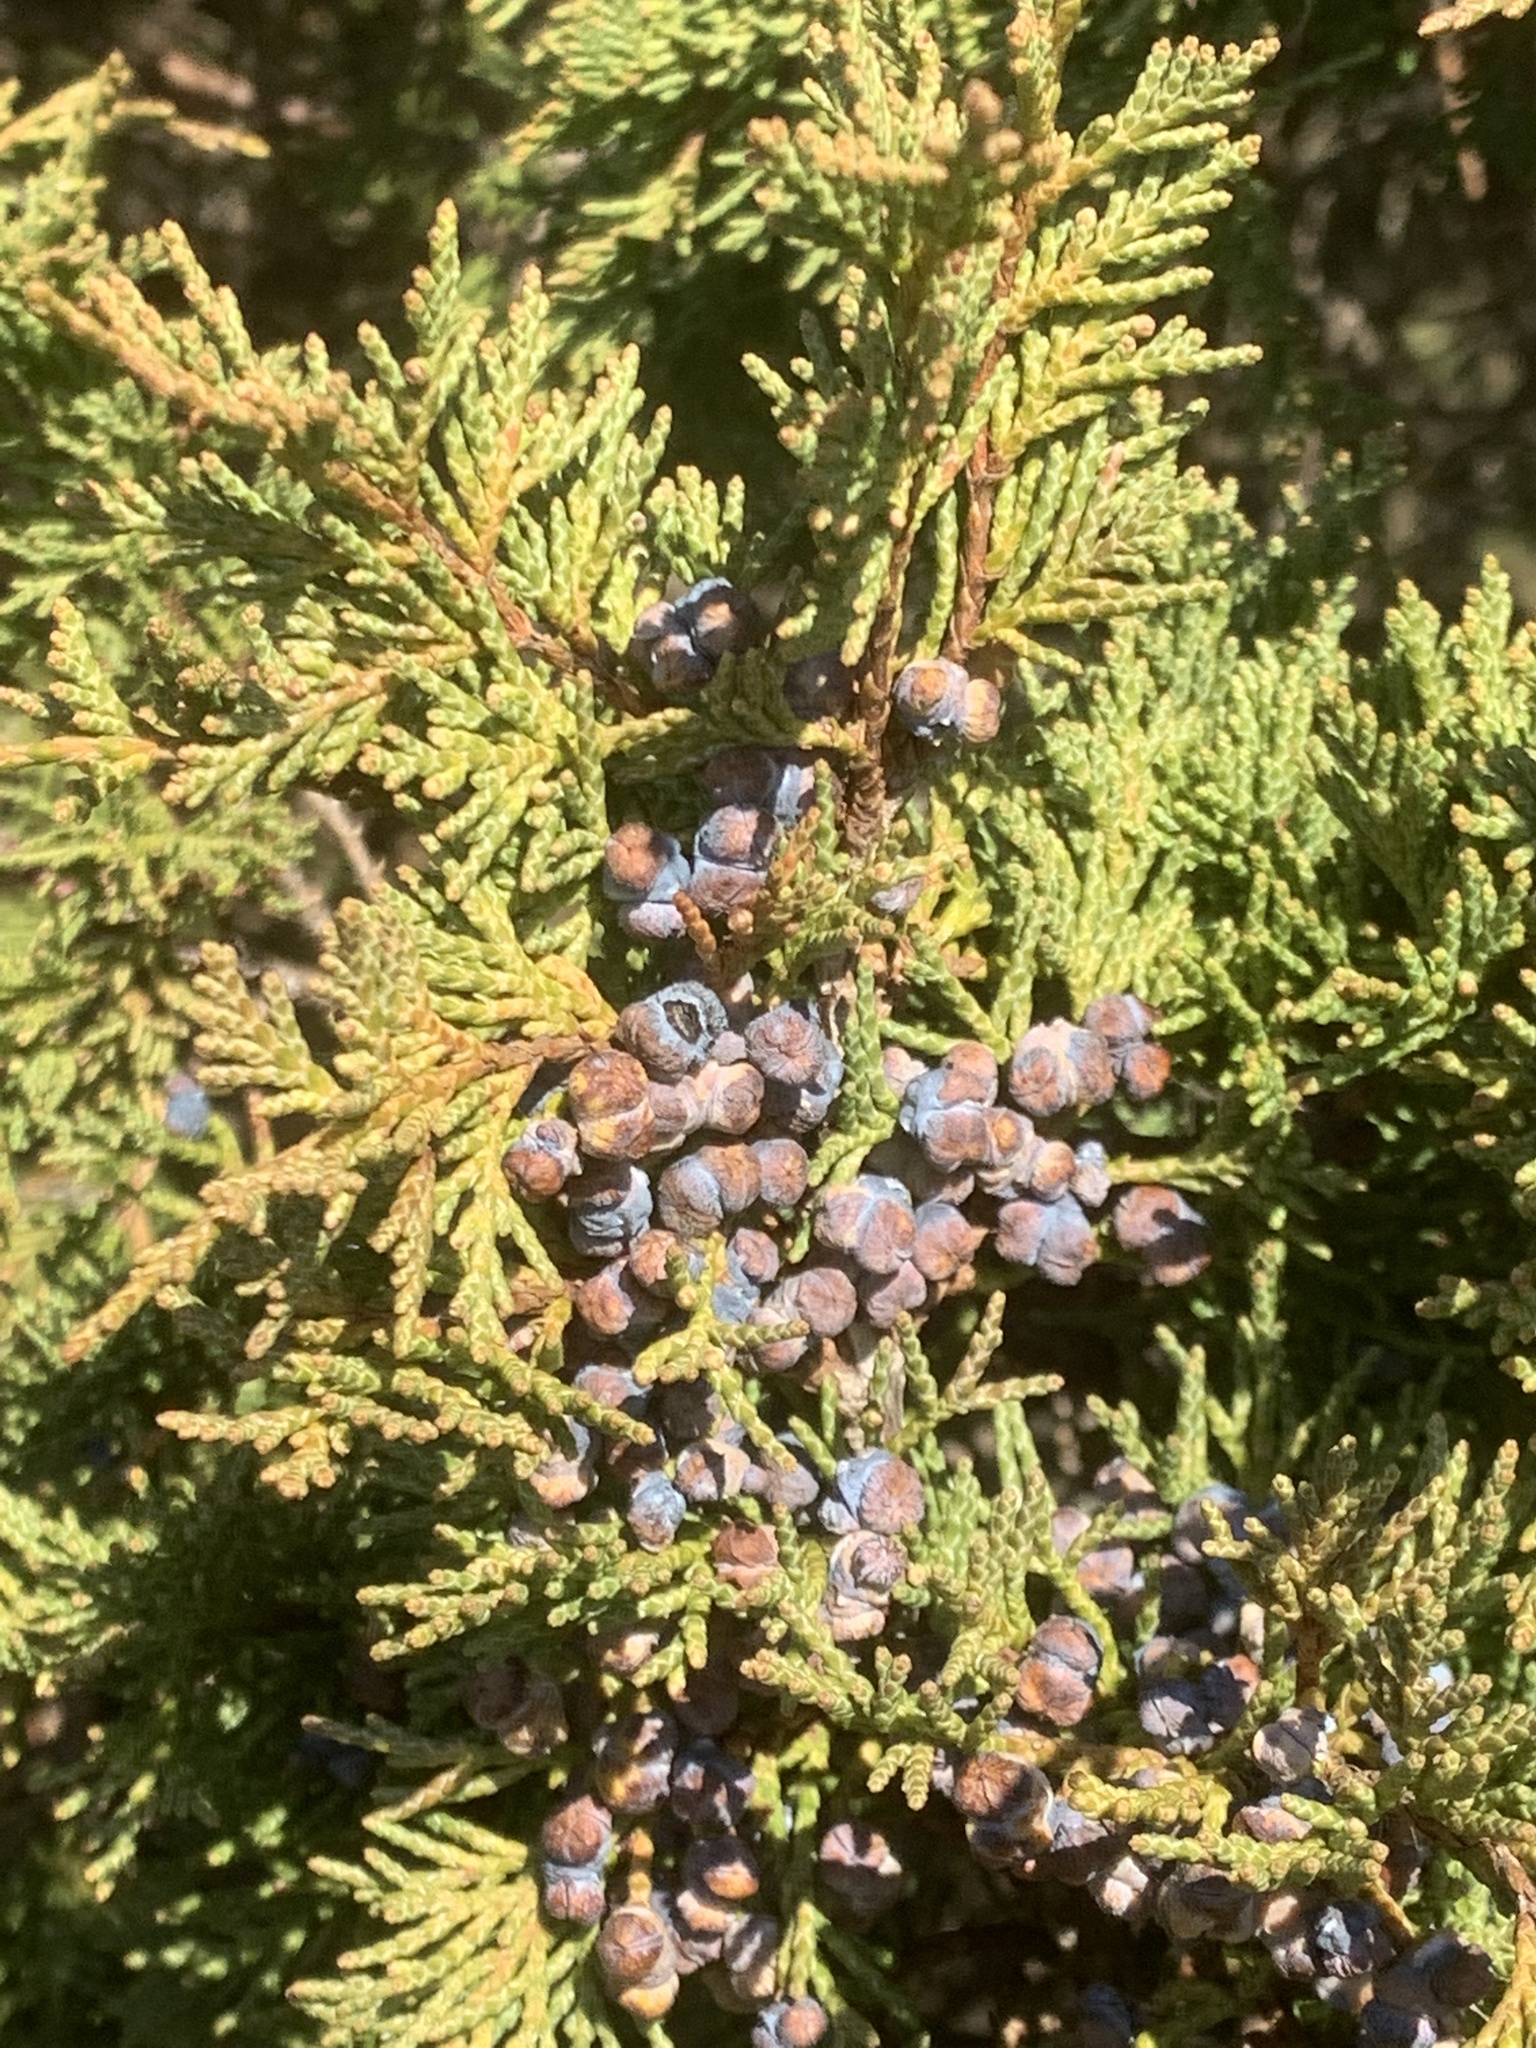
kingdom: Plantae
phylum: Tracheophyta
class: Pinopsida
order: Pinales
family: Cupressaceae
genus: Juniperus
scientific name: Juniperus scopulorum
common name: Rocky mountain juniper
